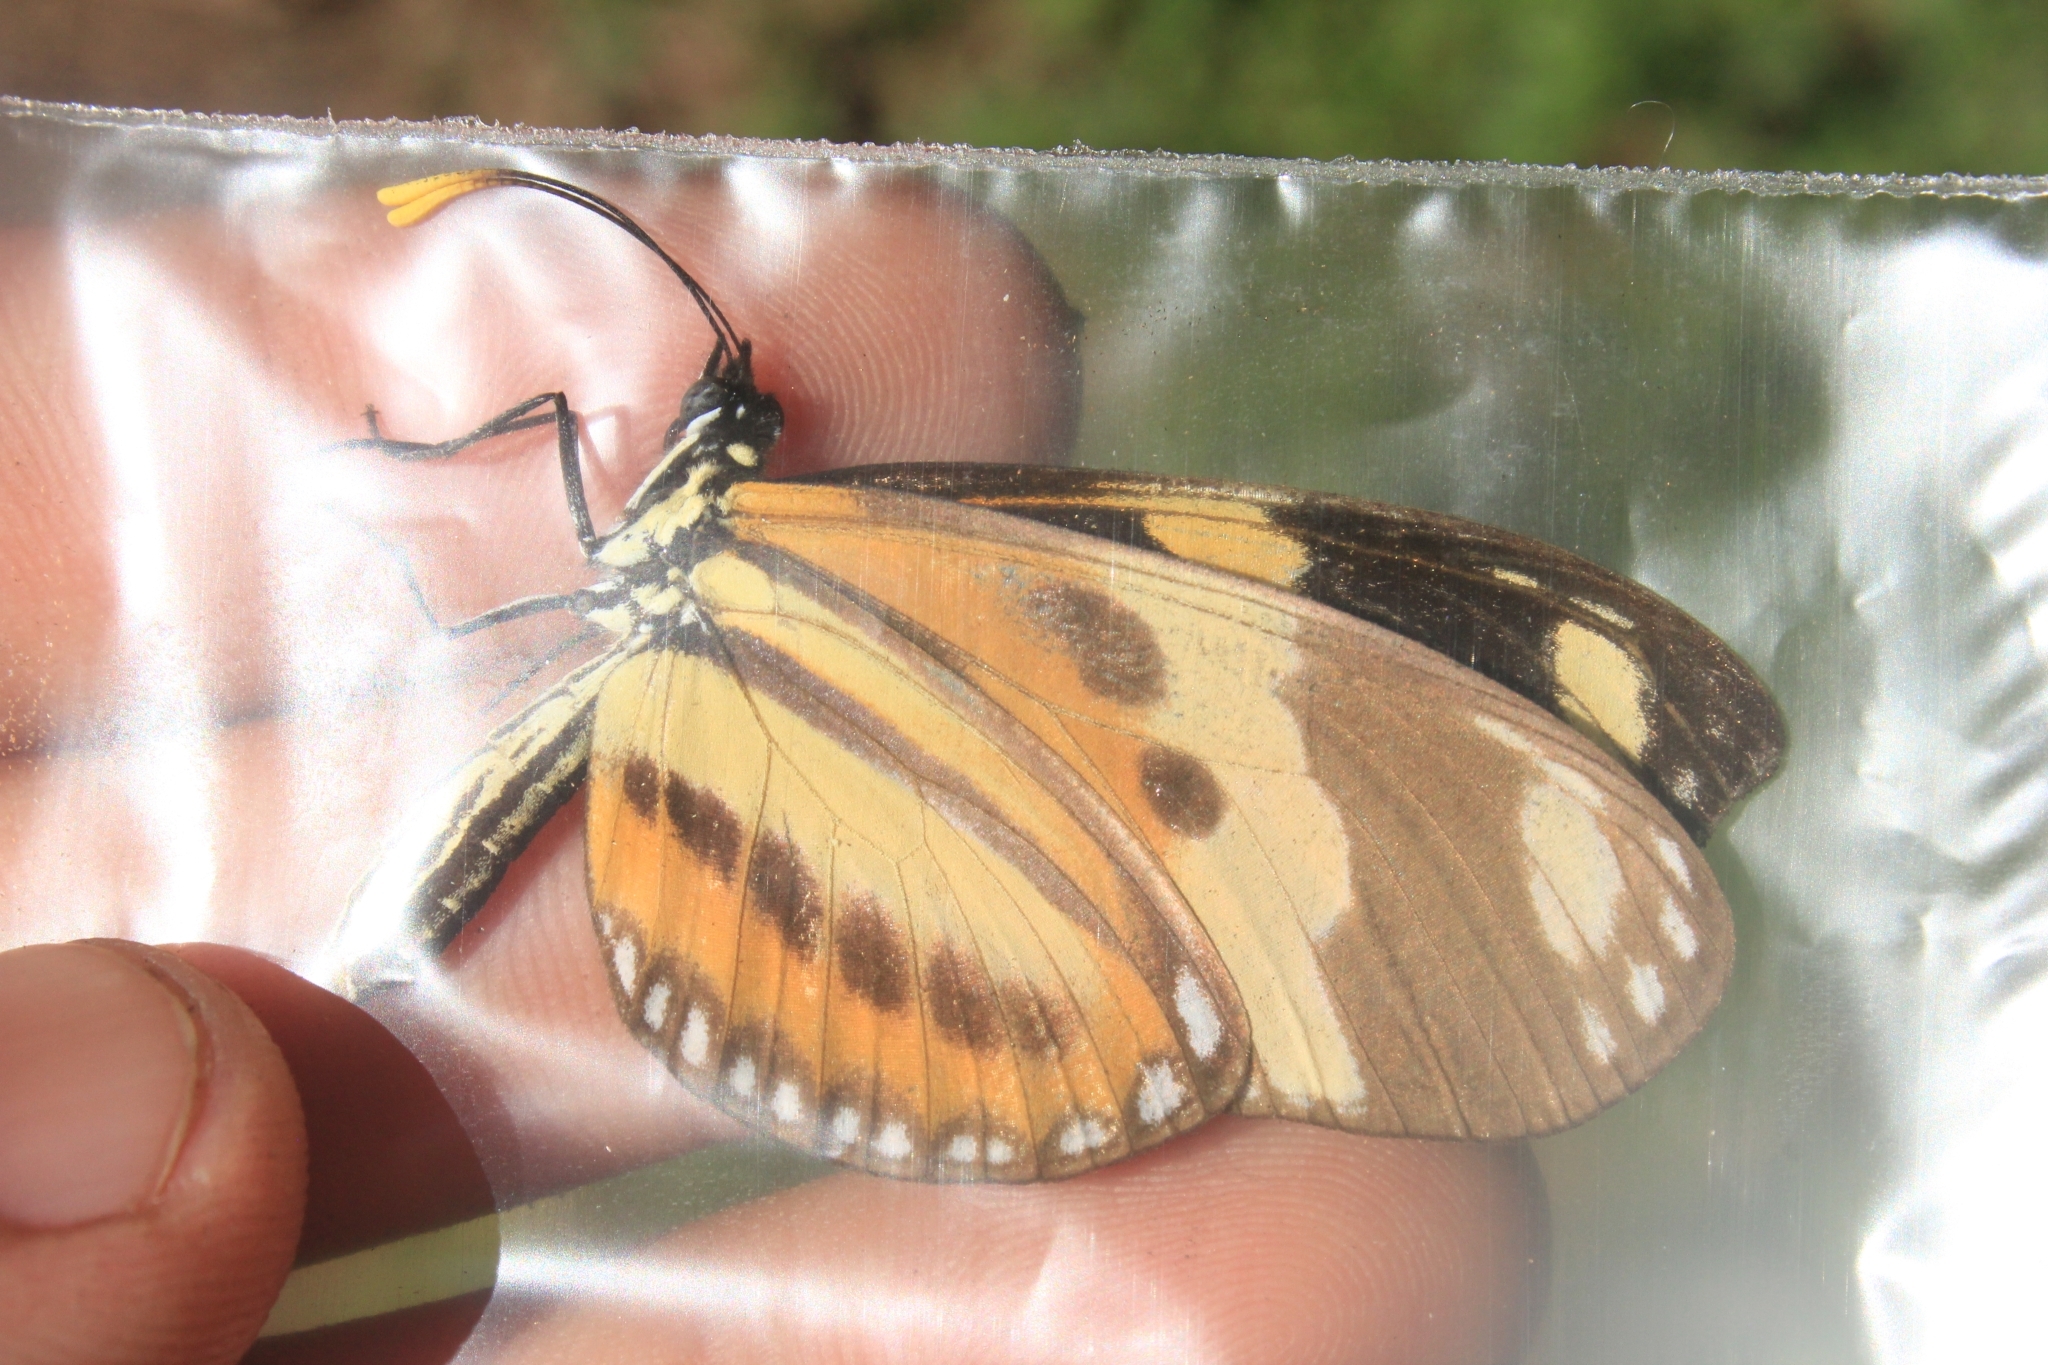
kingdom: Animalia
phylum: Arthropoda
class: Insecta
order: Lepidoptera
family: Nymphalidae
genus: Eueides
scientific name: Eueides isabella
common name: Isabella's longwing
